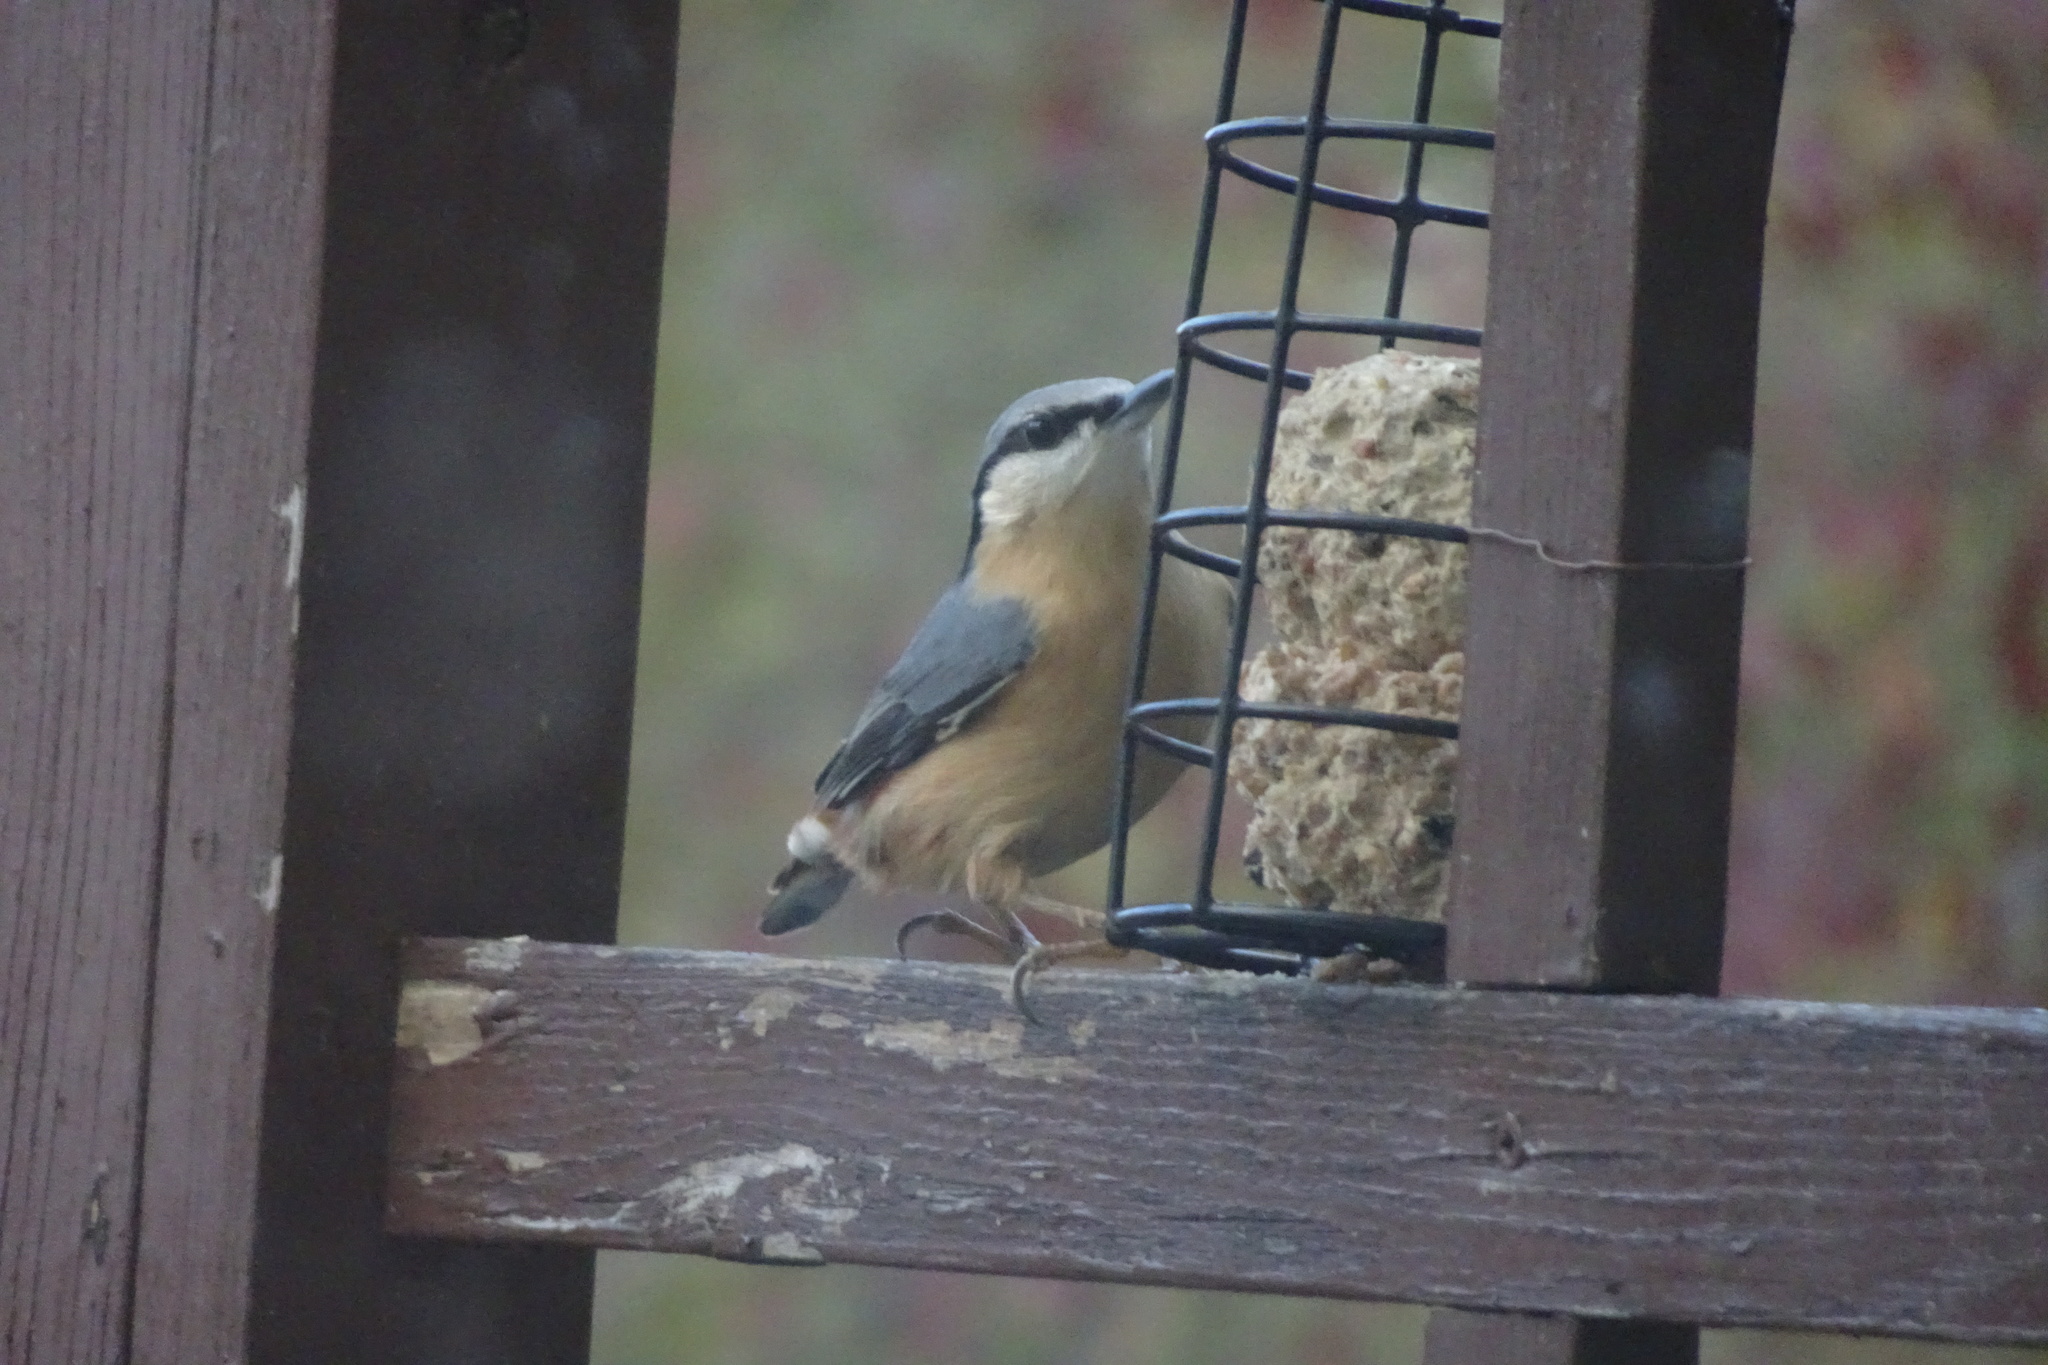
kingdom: Animalia
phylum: Chordata
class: Aves
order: Passeriformes
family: Sittidae
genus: Sitta
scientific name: Sitta europaea
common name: Eurasian nuthatch
